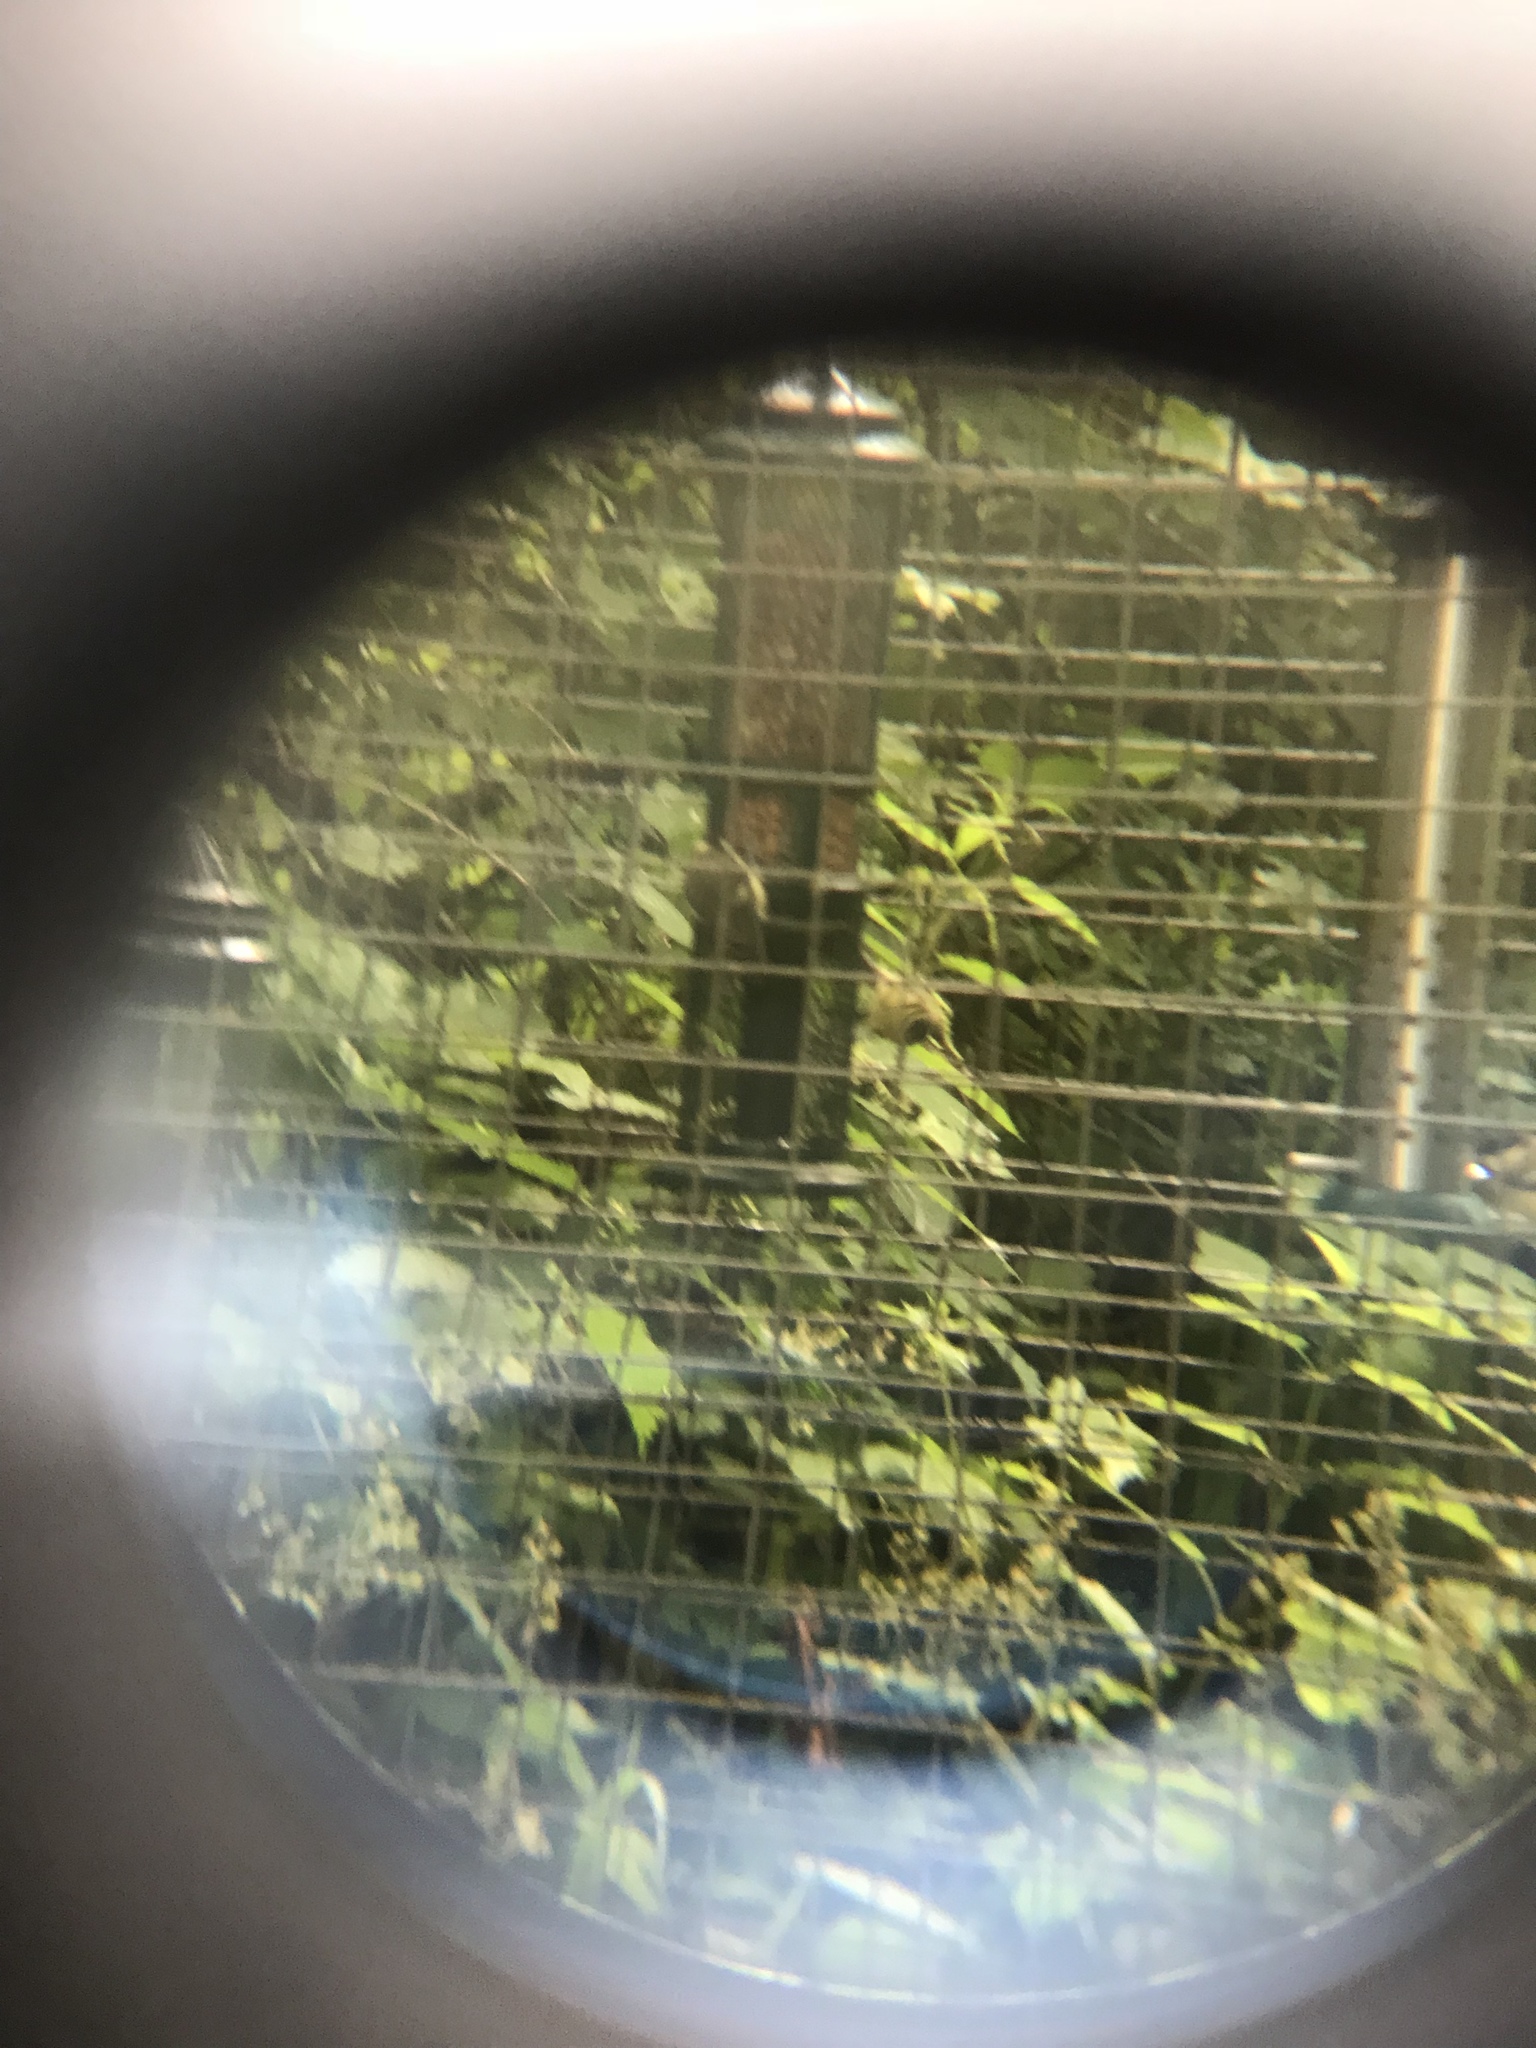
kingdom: Animalia
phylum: Chordata
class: Aves
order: Passeriformes
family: Paridae
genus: Parus
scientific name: Parus major
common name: Great tit
